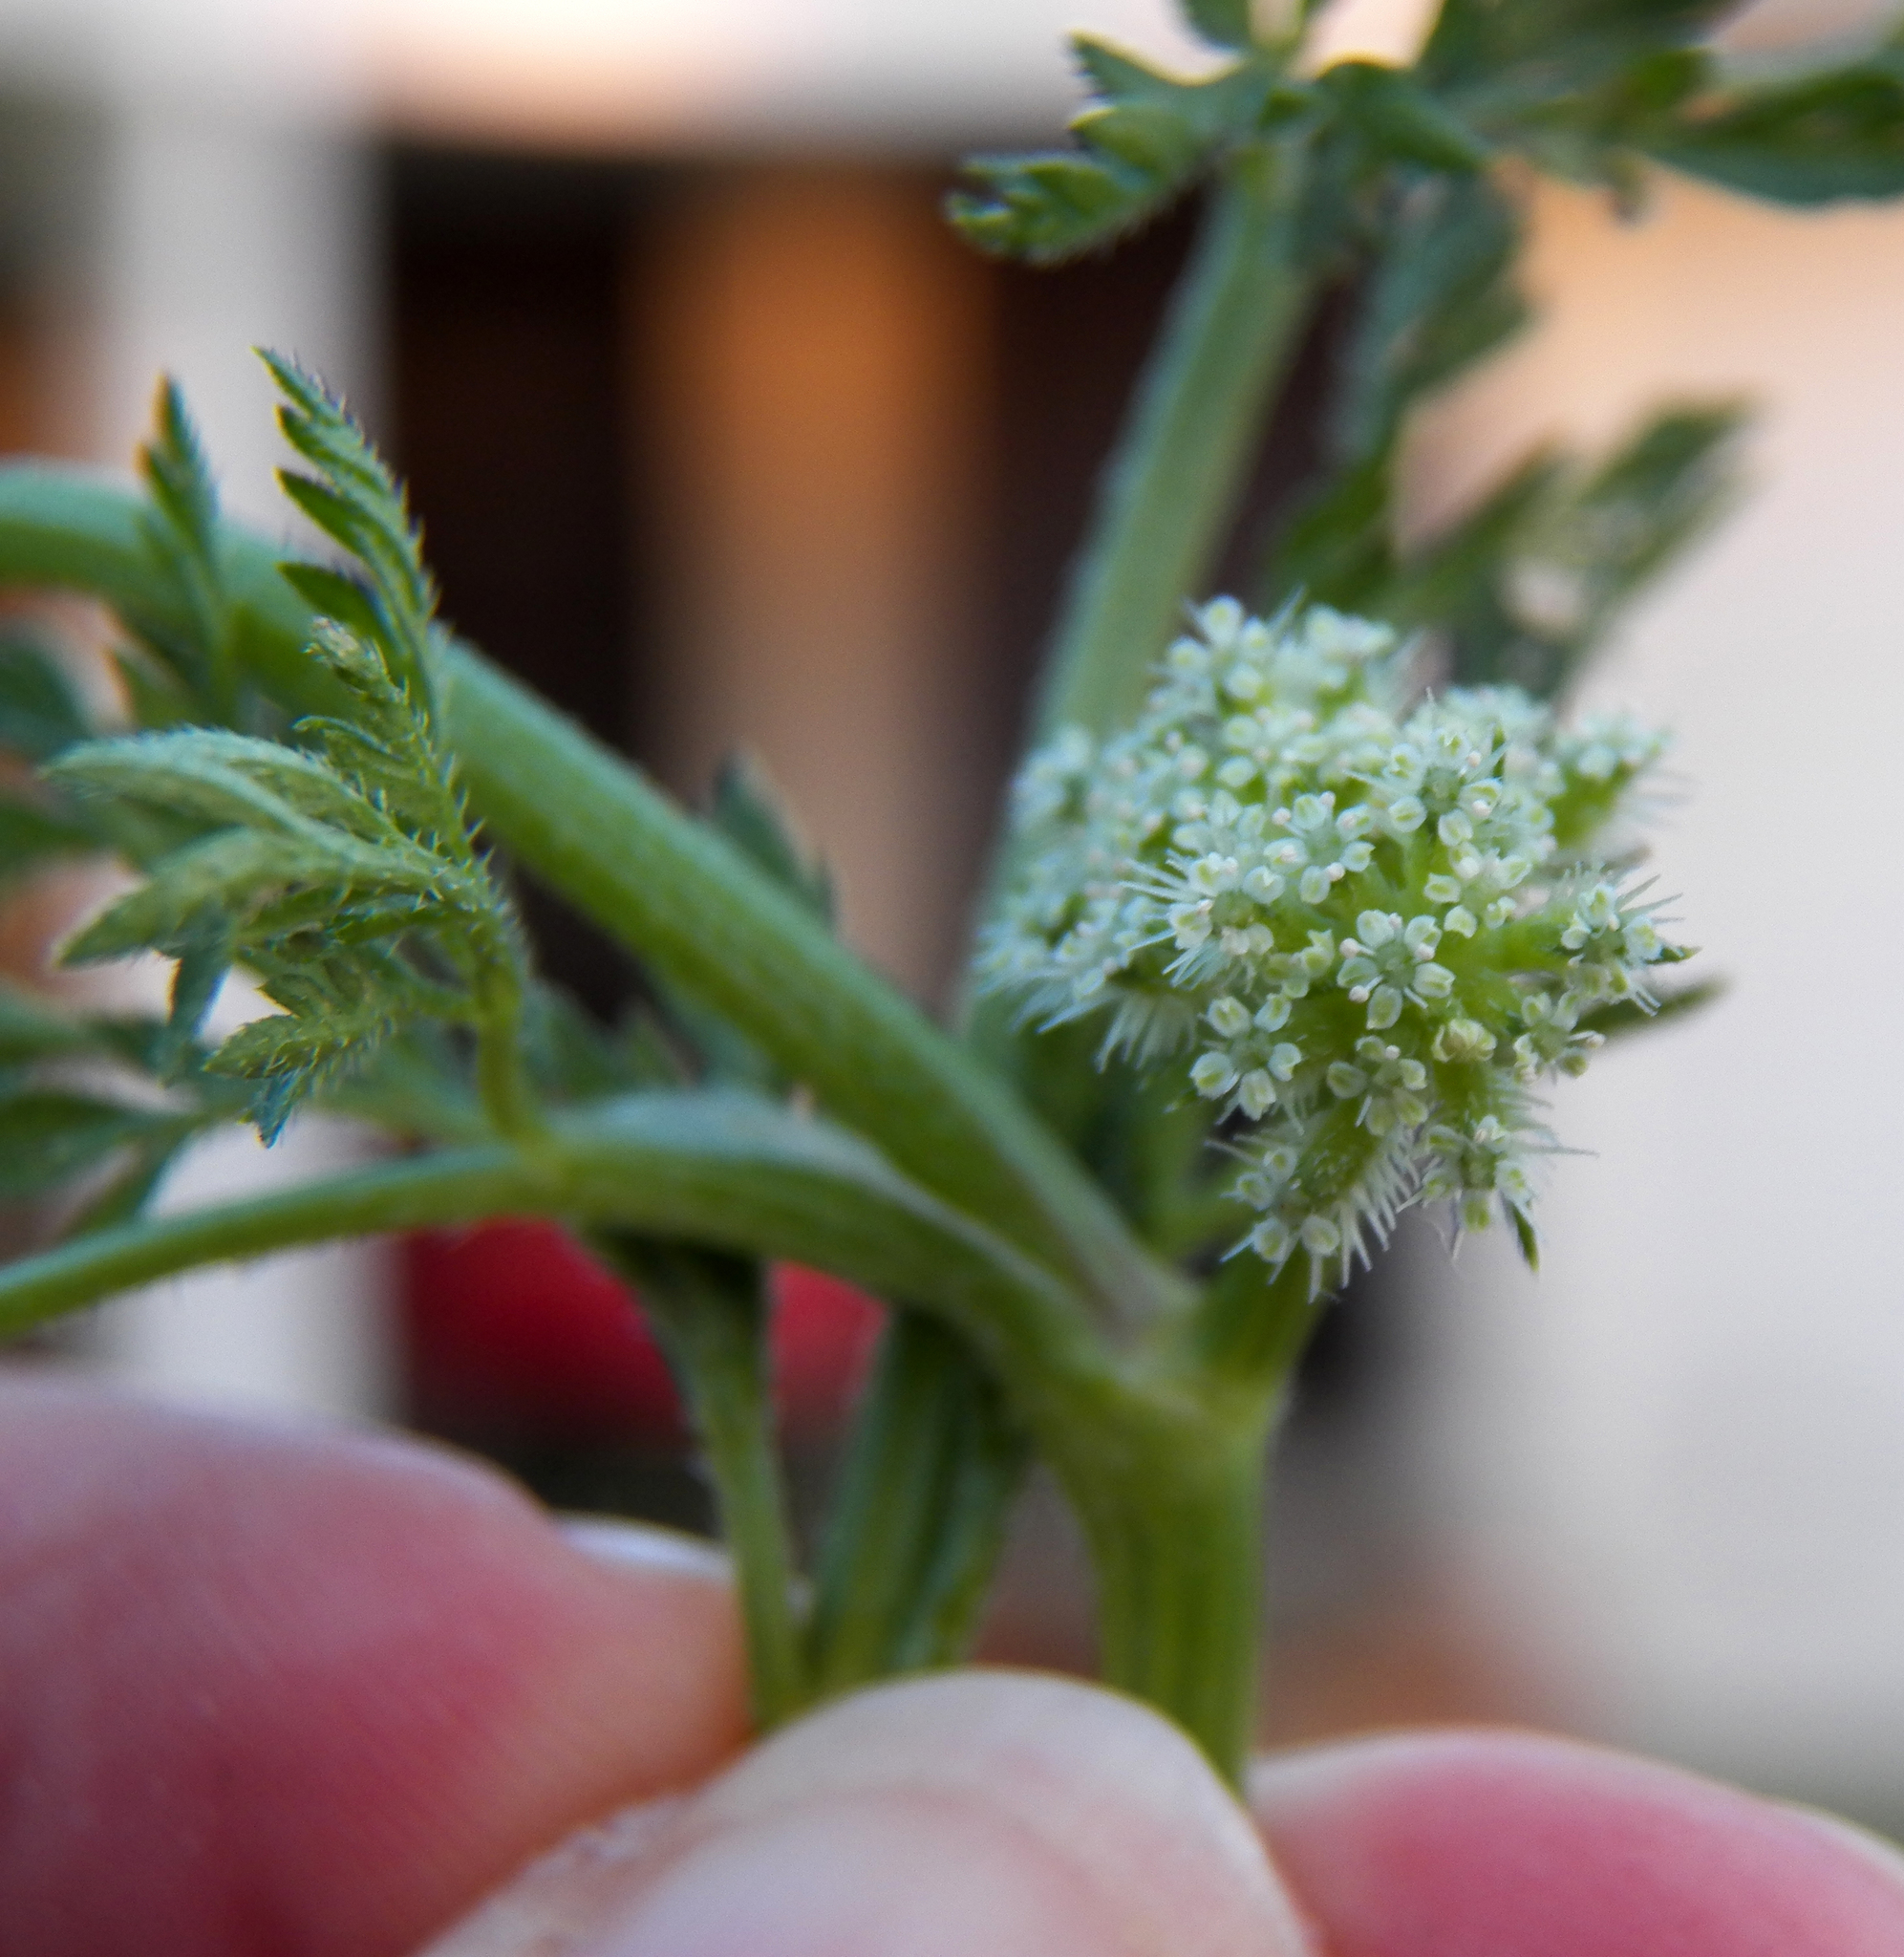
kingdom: Plantae
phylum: Tracheophyta
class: Magnoliopsida
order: Apiales
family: Apiaceae
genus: Torilis
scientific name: Torilis nodosa
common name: Knotted hedge-parsley
